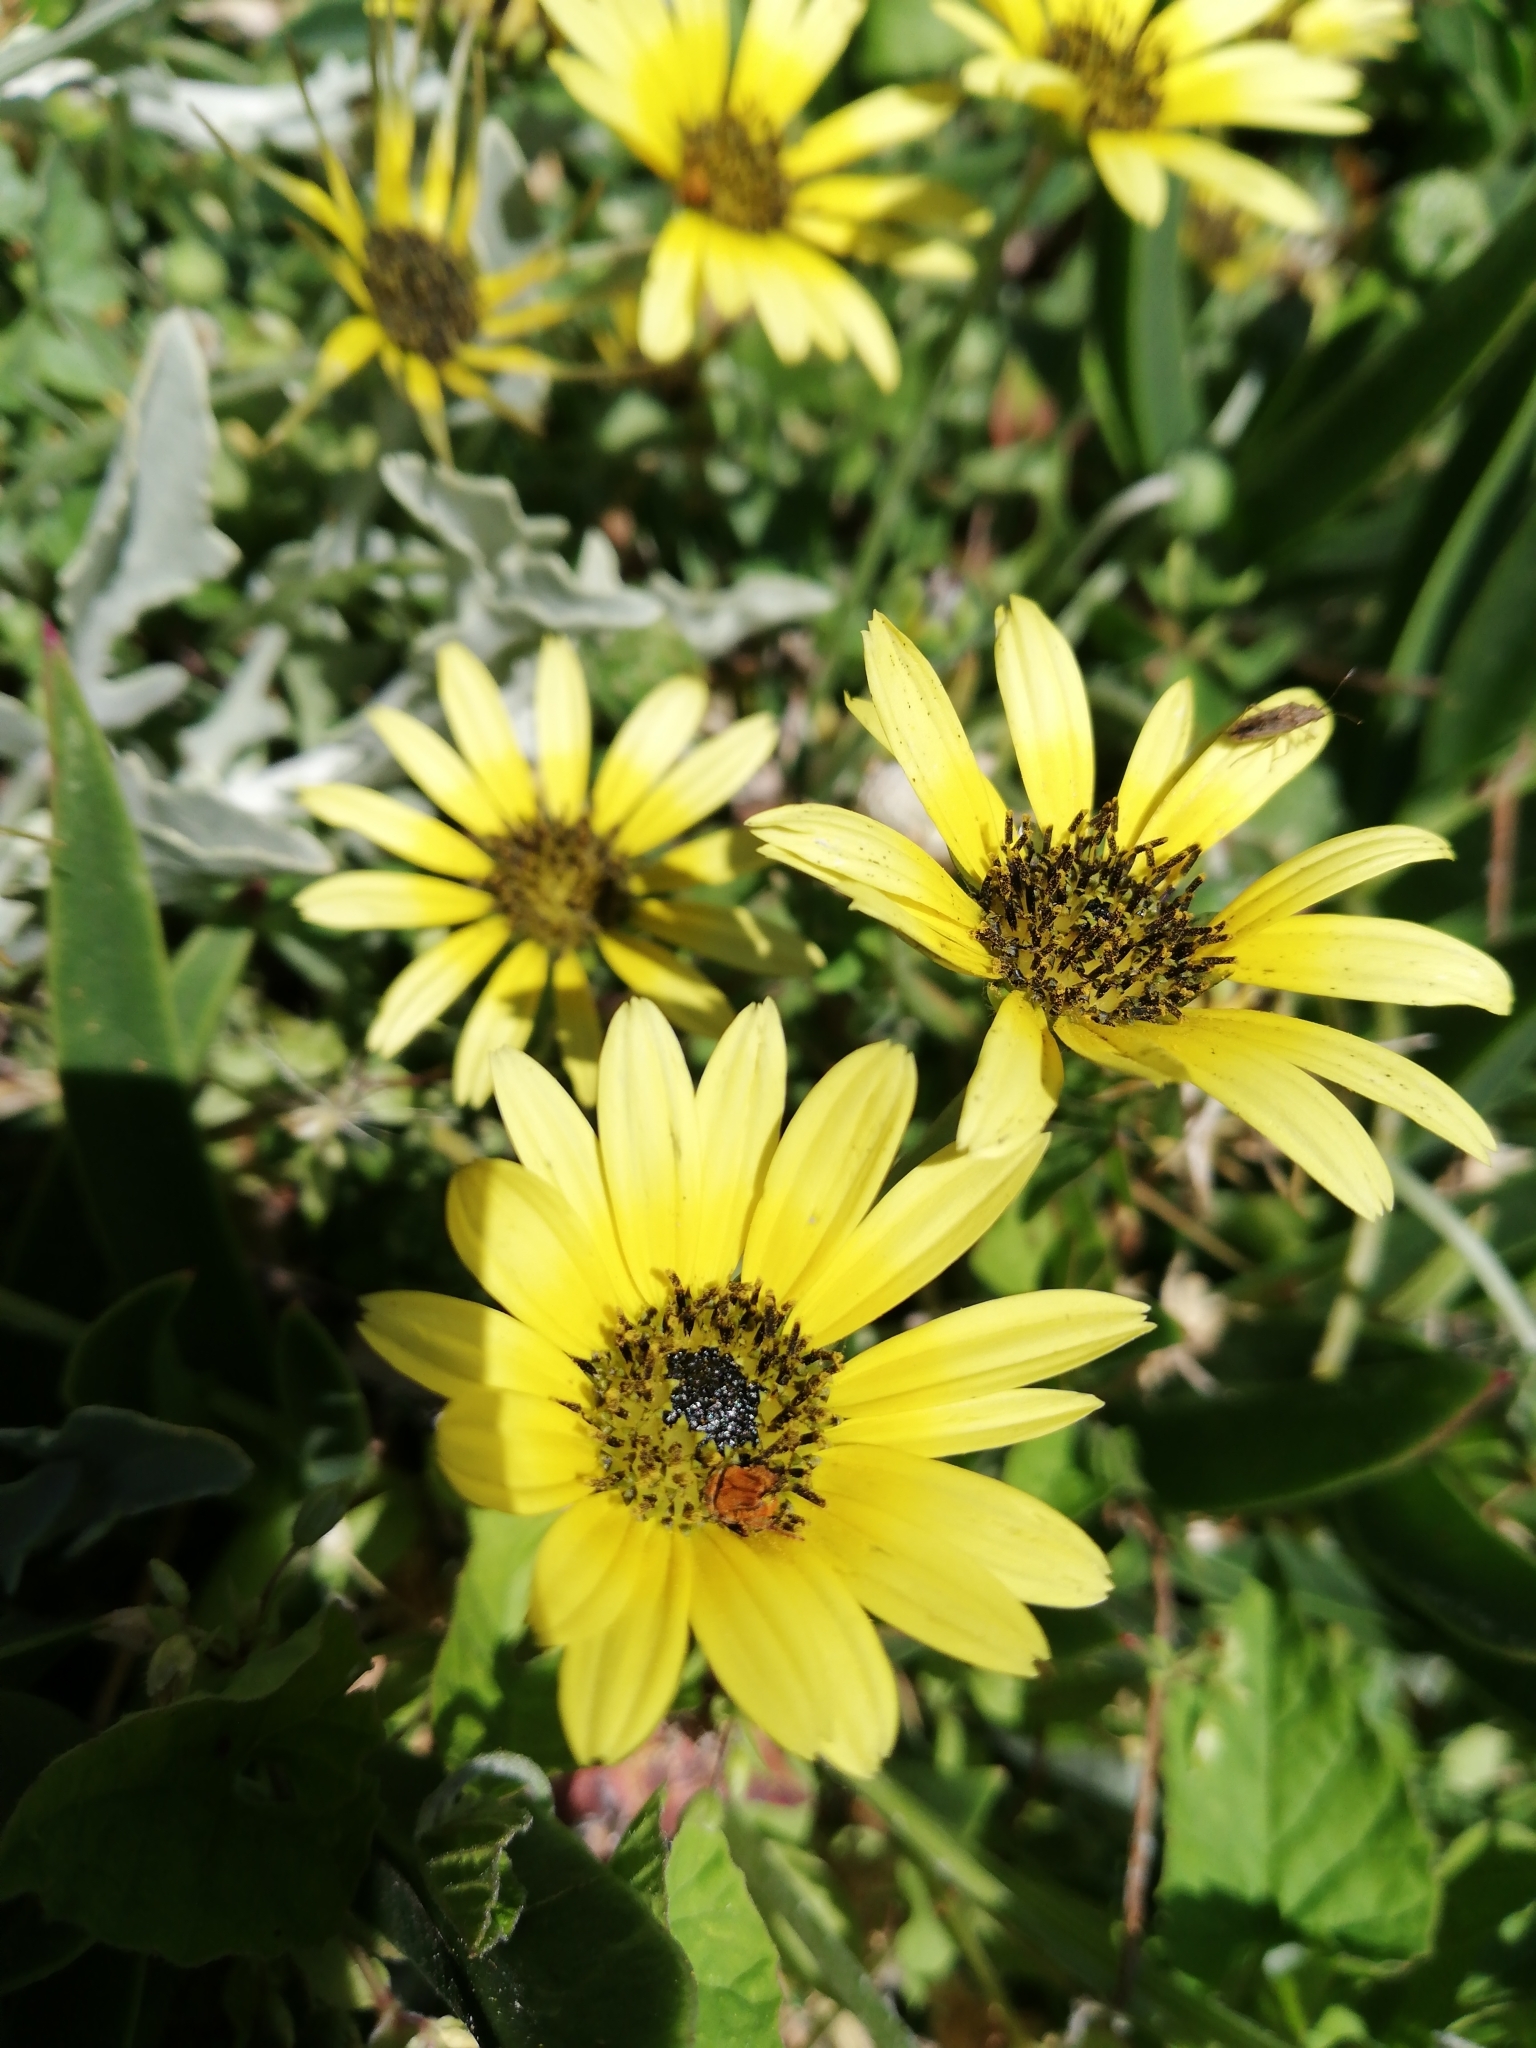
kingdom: Plantae
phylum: Tracheophyta
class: Magnoliopsida
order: Asterales
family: Asteraceae
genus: Arctotheca
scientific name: Arctotheca calendula
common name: Capeweed
